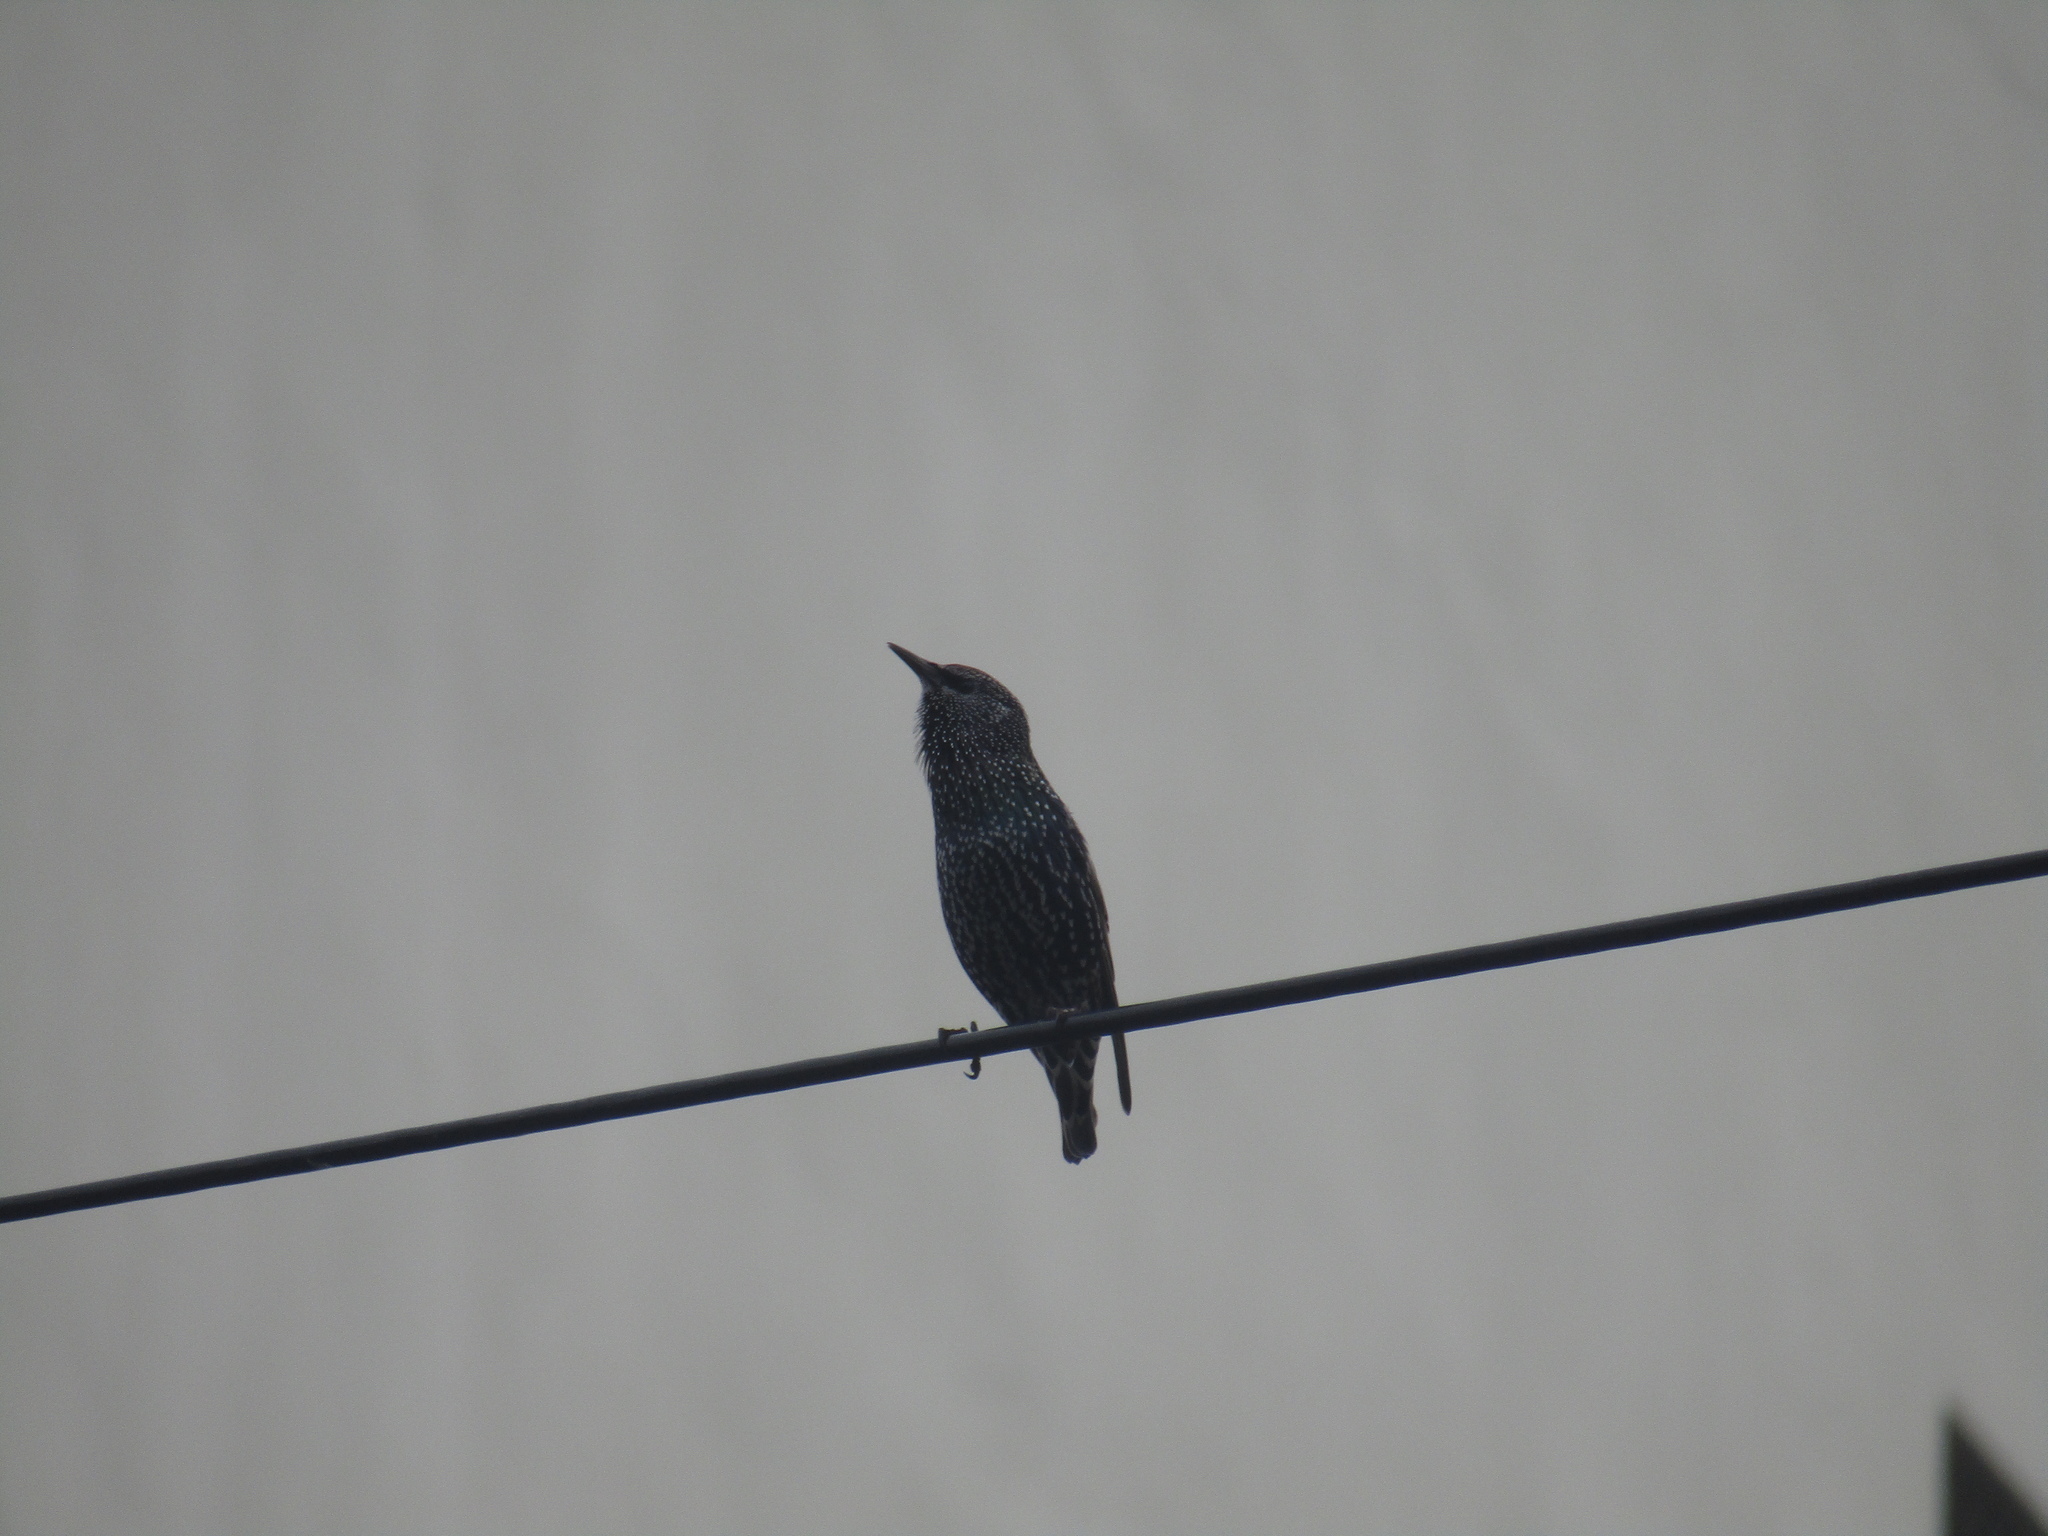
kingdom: Animalia
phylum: Chordata
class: Aves
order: Passeriformes
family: Sturnidae
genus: Sturnus
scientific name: Sturnus vulgaris
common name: Common starling
